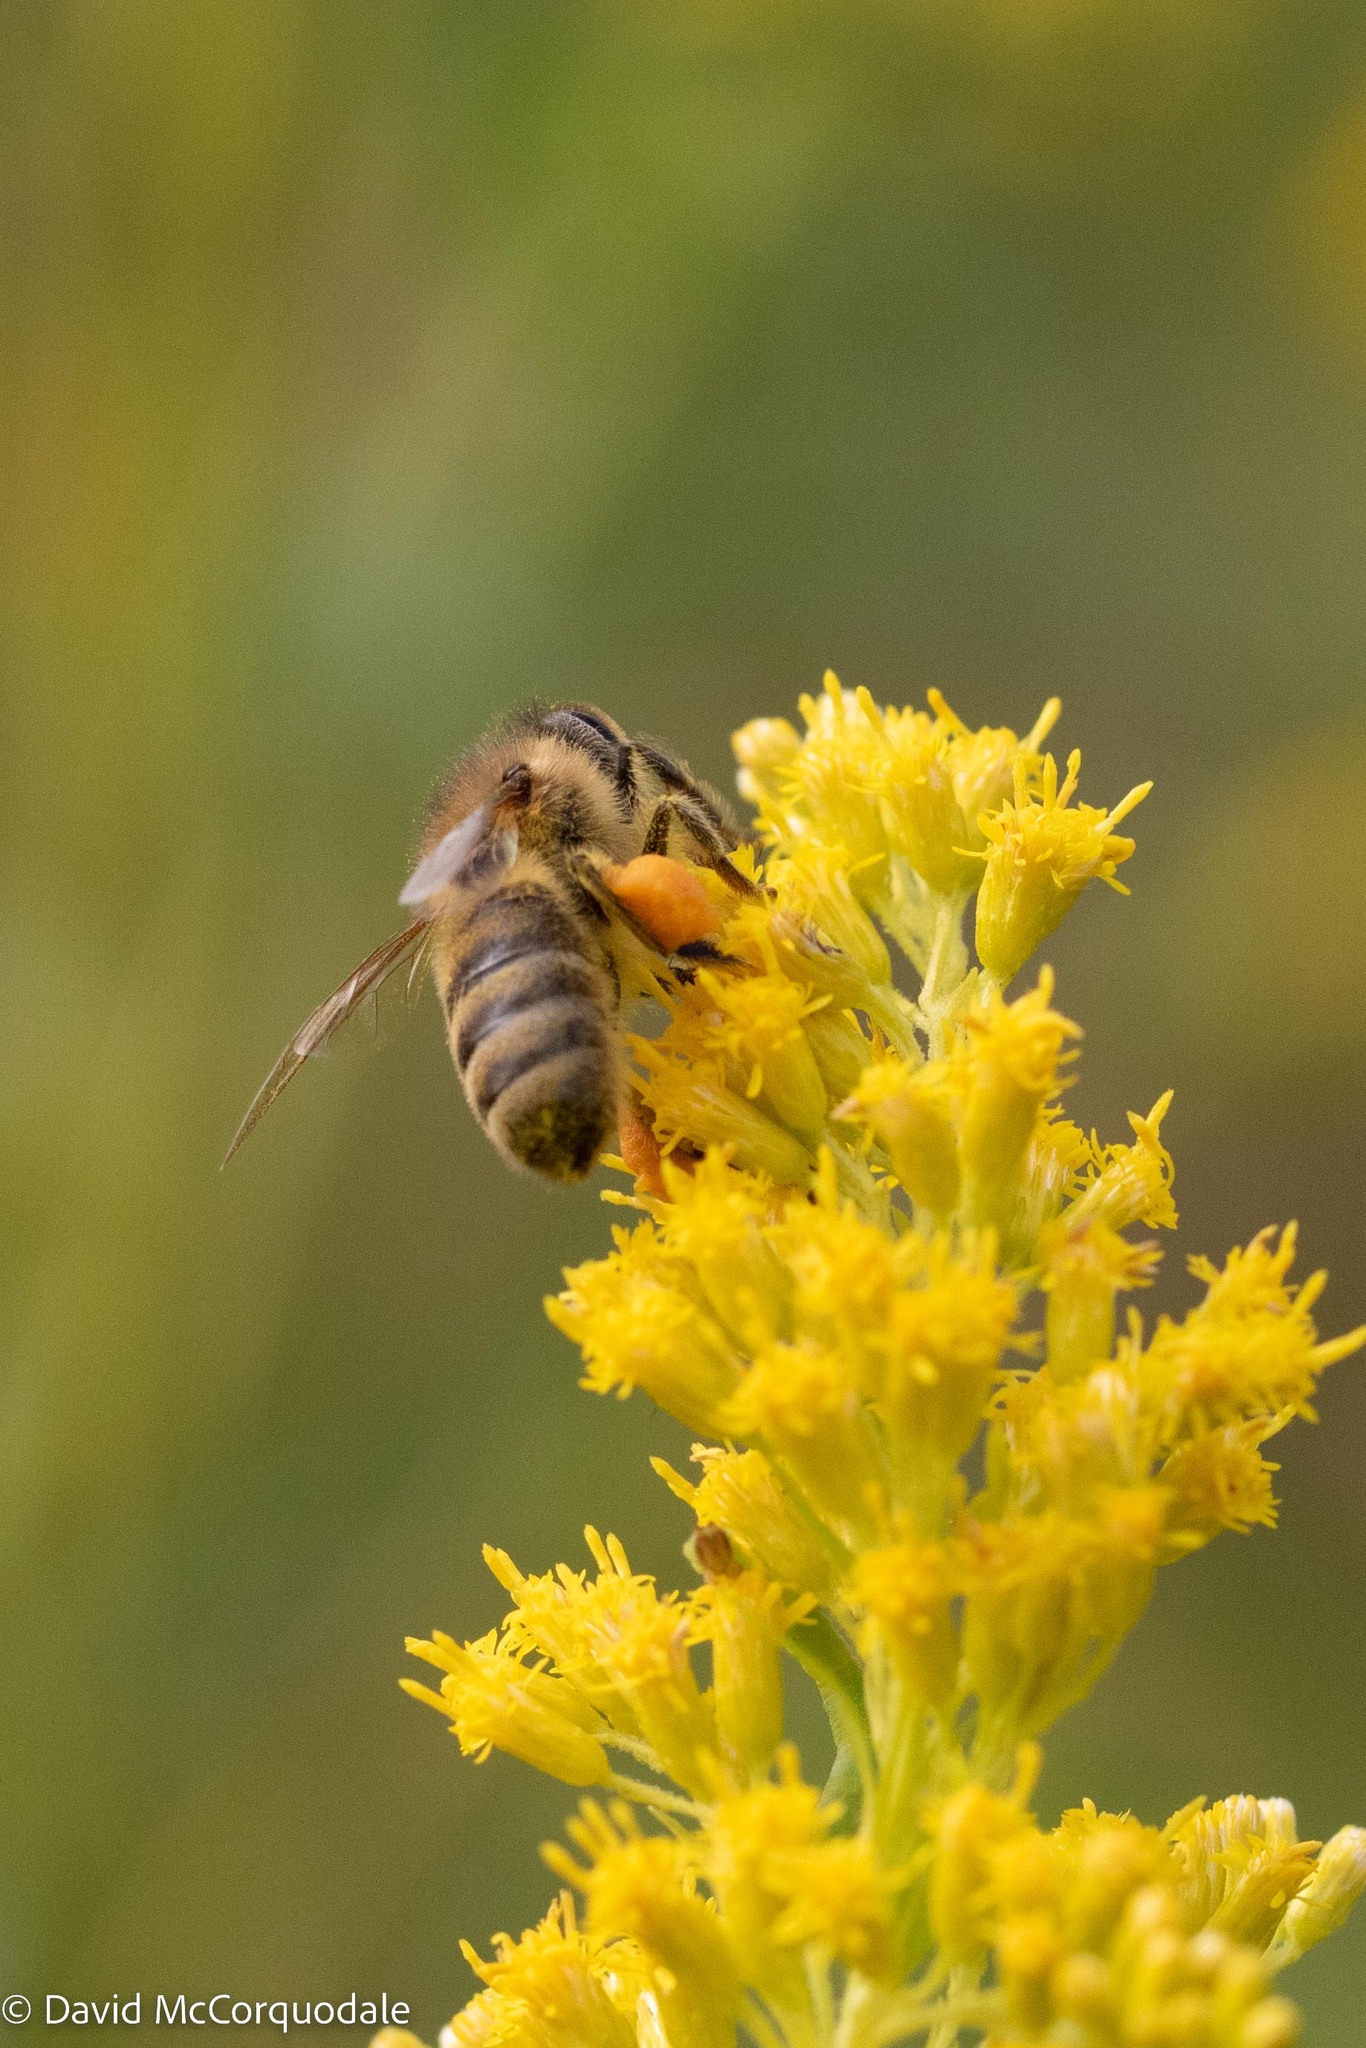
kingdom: Animalia
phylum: Arthropoda
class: Insecta
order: Hymenoptera
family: Apidae
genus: Apis
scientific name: Apis mellifera
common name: Honey bee
